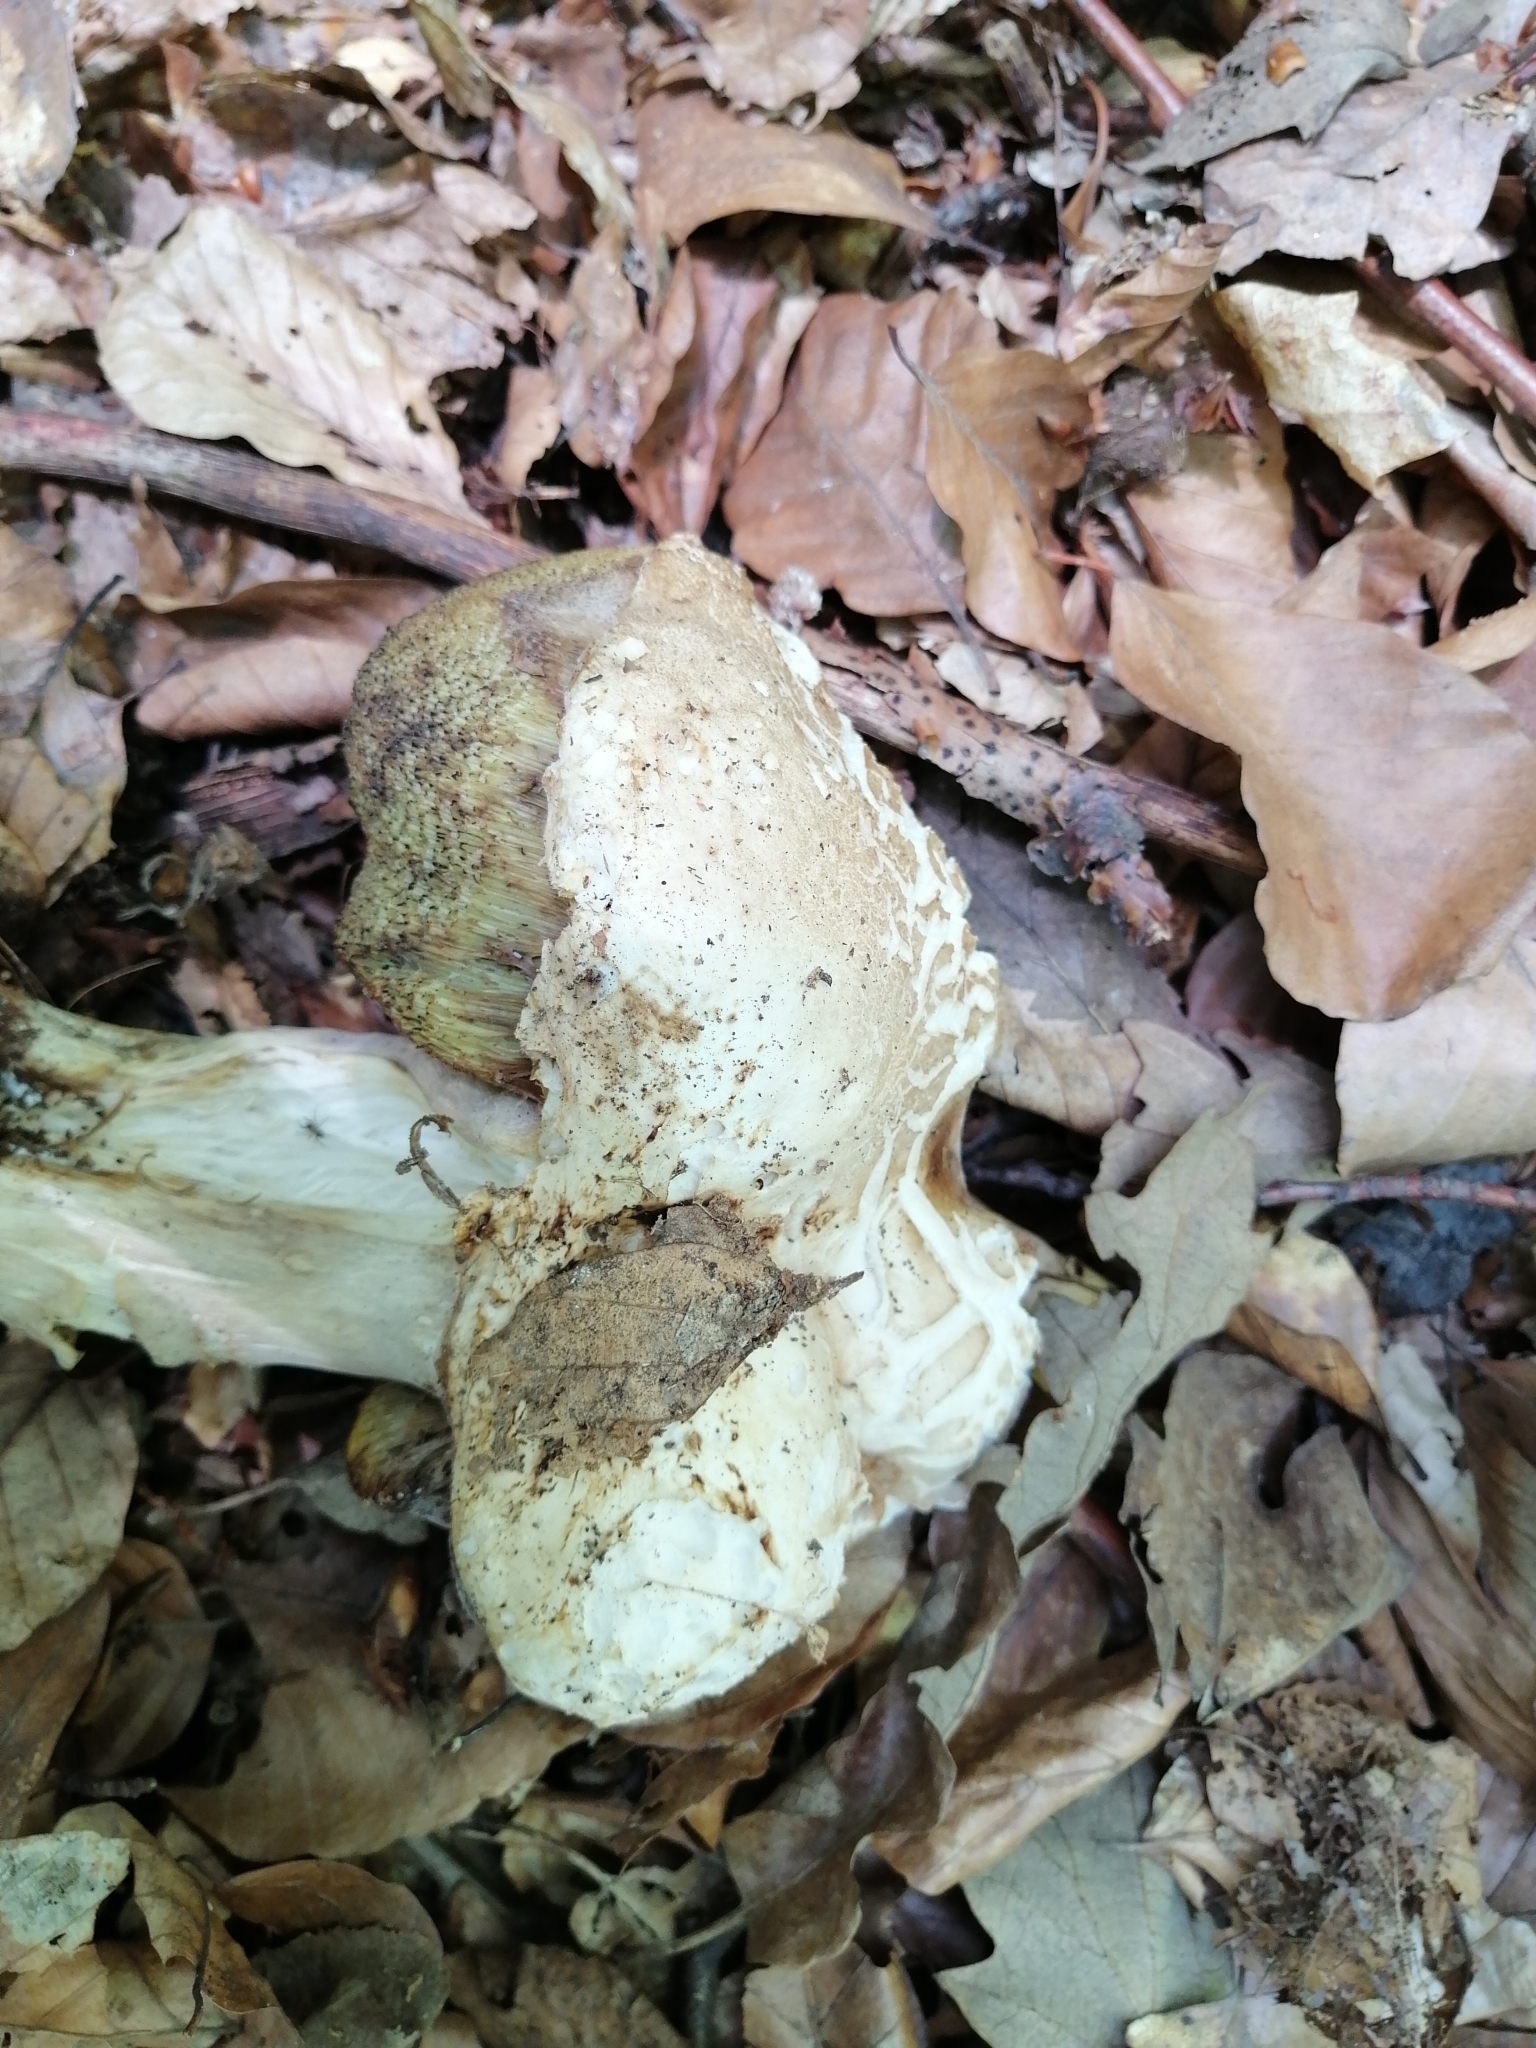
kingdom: Fungi
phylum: Basidiomycota
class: Agaricomycetes
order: Boletales
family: Boletaceae
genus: Boletus
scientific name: Boletus reticulatus
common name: Summer bolete
